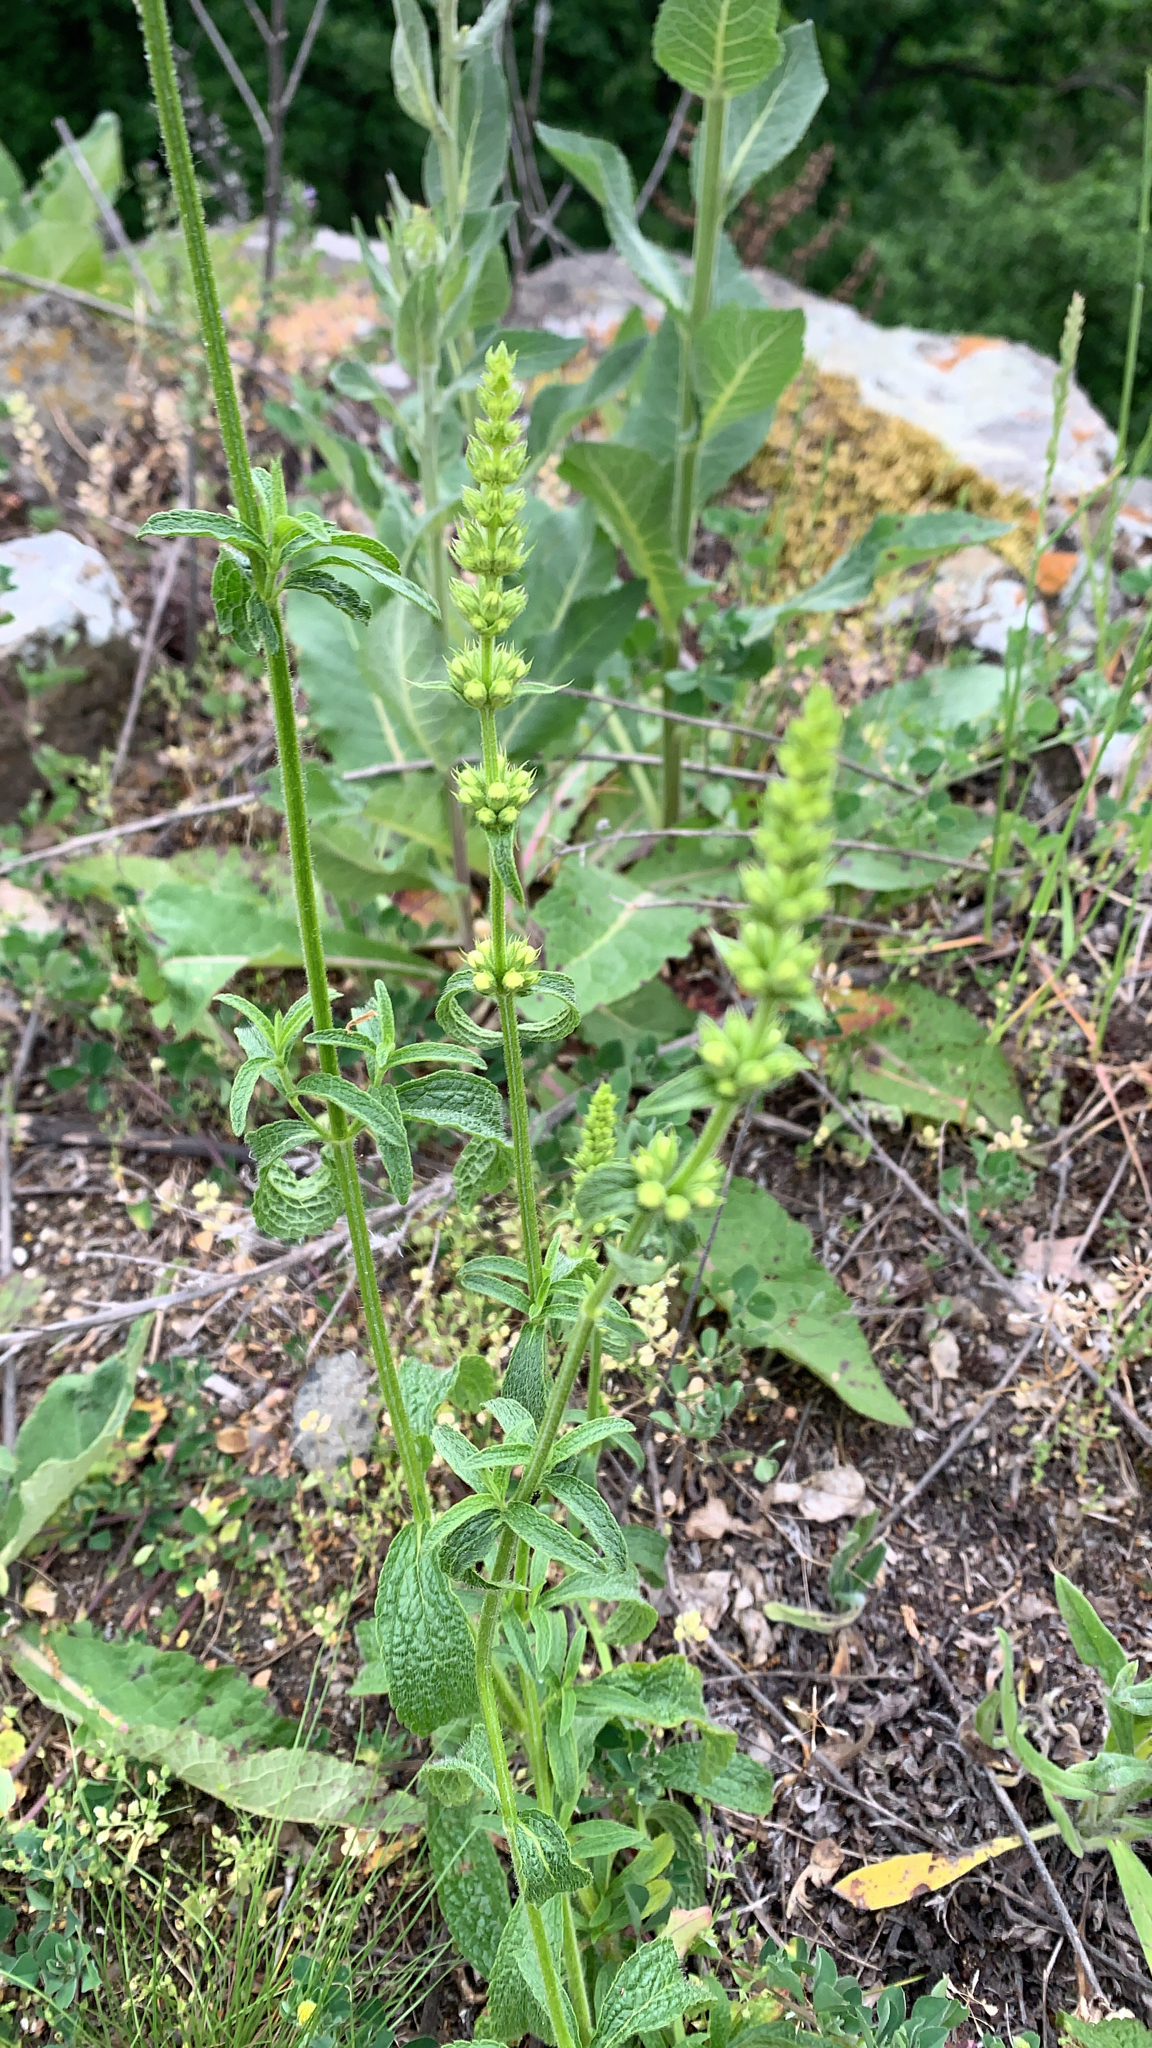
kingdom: Plantae
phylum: Tracheophyta
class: Magnoliopsida
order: Lamiales
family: Lamiaceae
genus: Stachys
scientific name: Stachys recta
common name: Perennial yellow-woundwort
